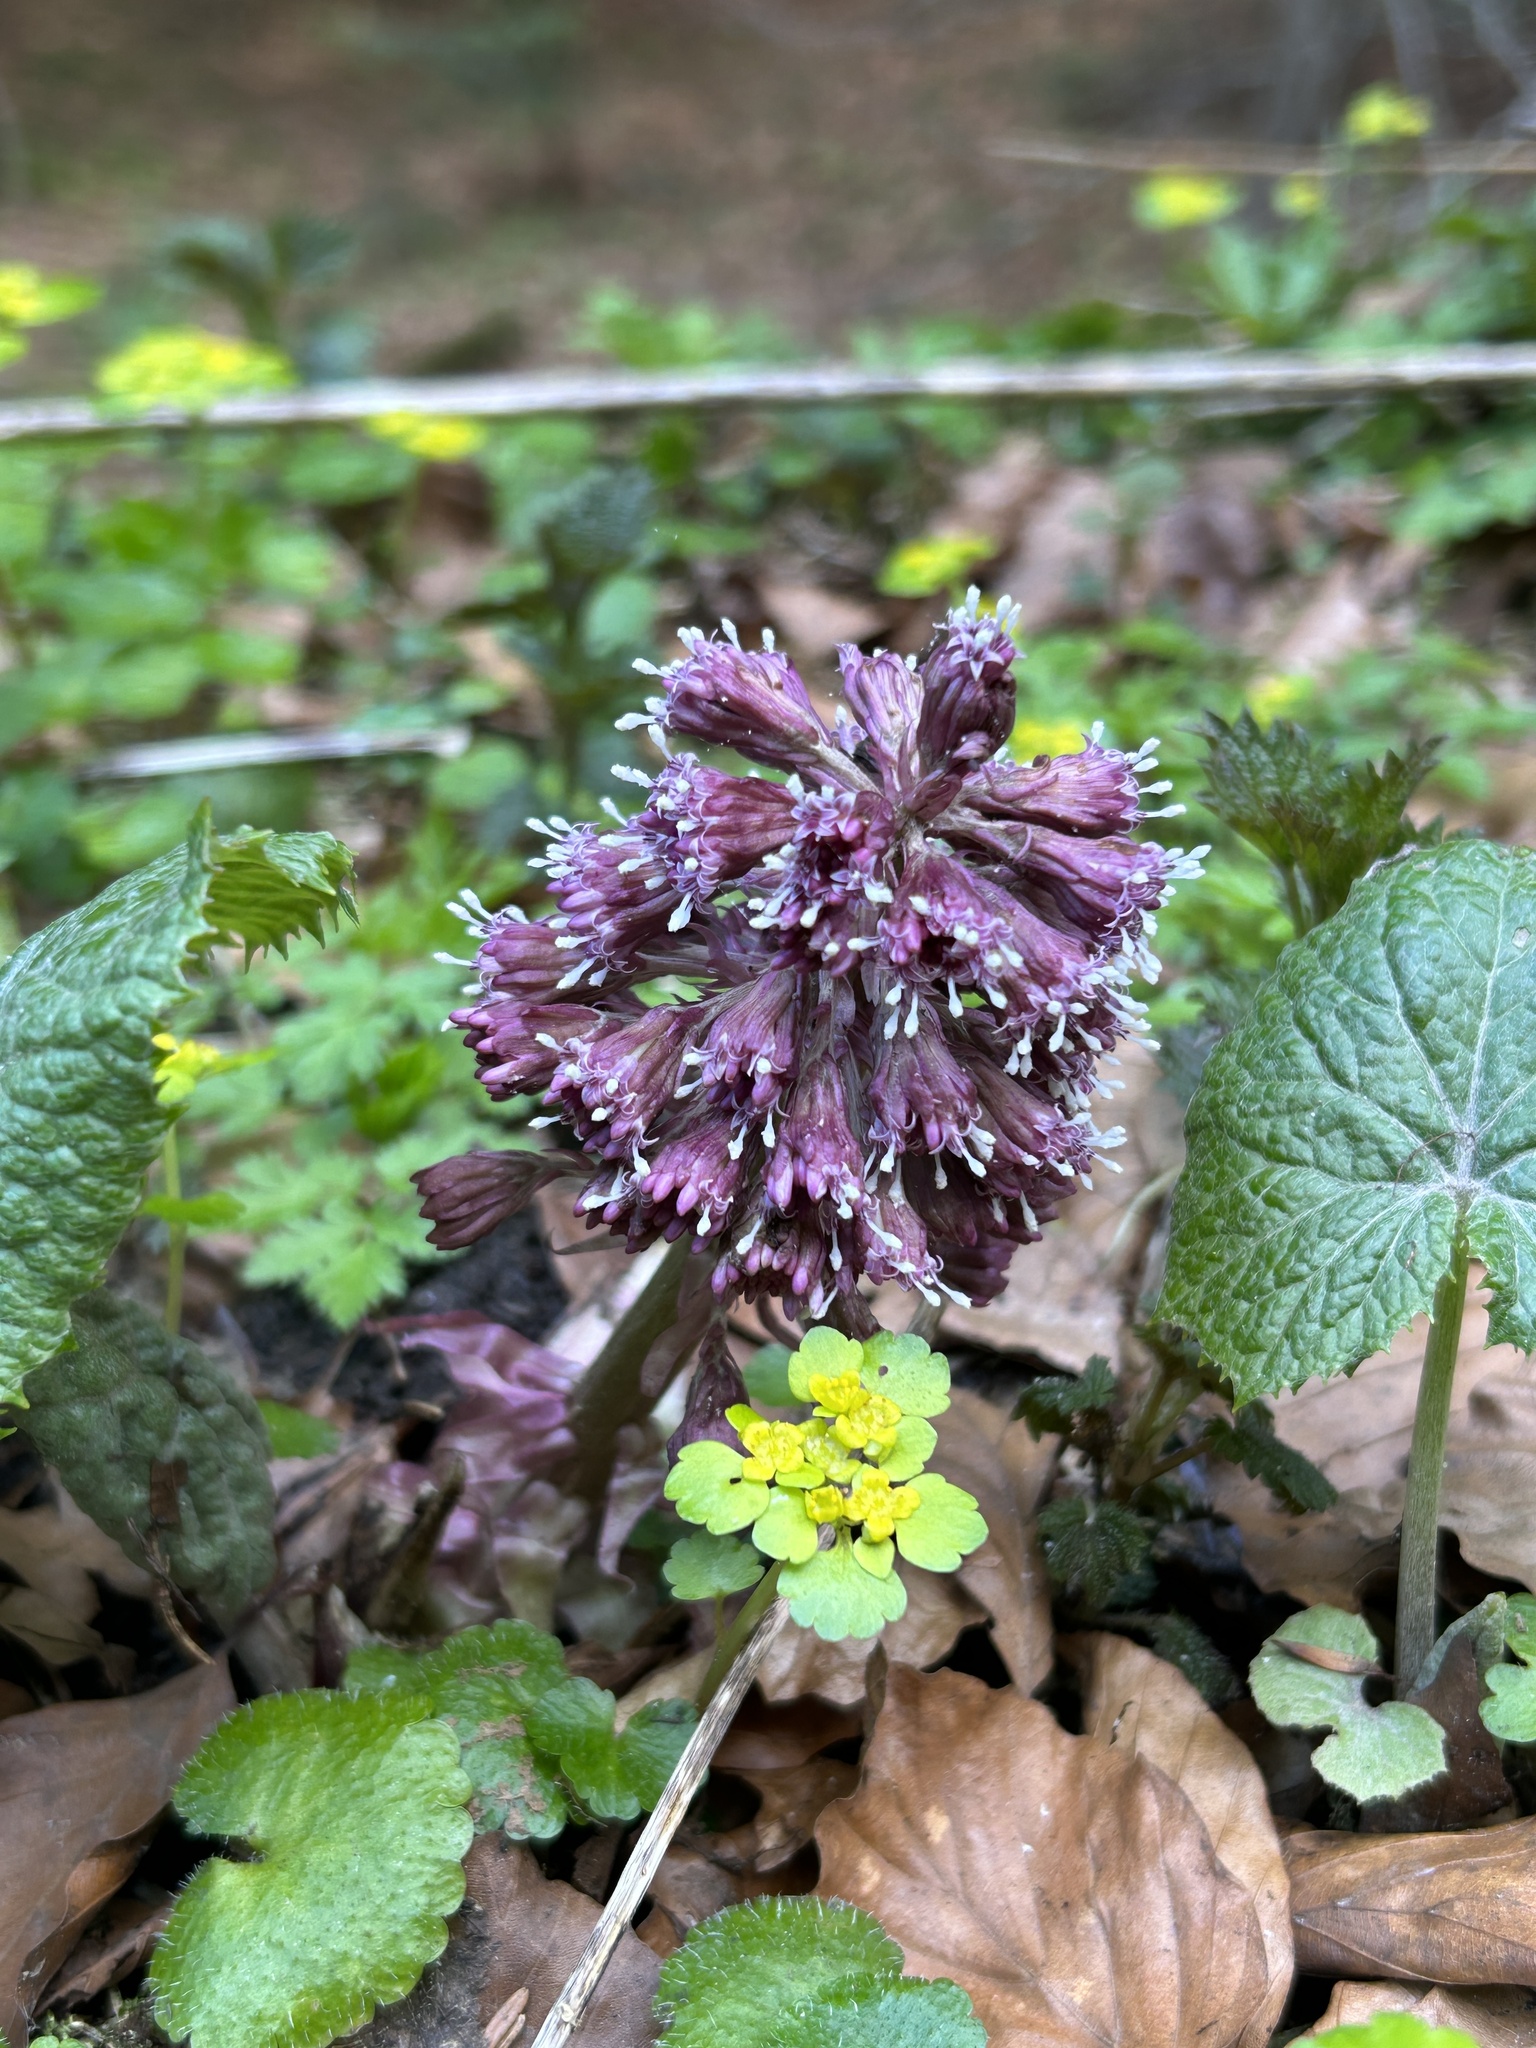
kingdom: Plantae
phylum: Tracheophyta
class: Magnoliopsida
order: Asterales
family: Asteraceae
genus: Petasites
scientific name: Petasites hybridus
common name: Butterbur
